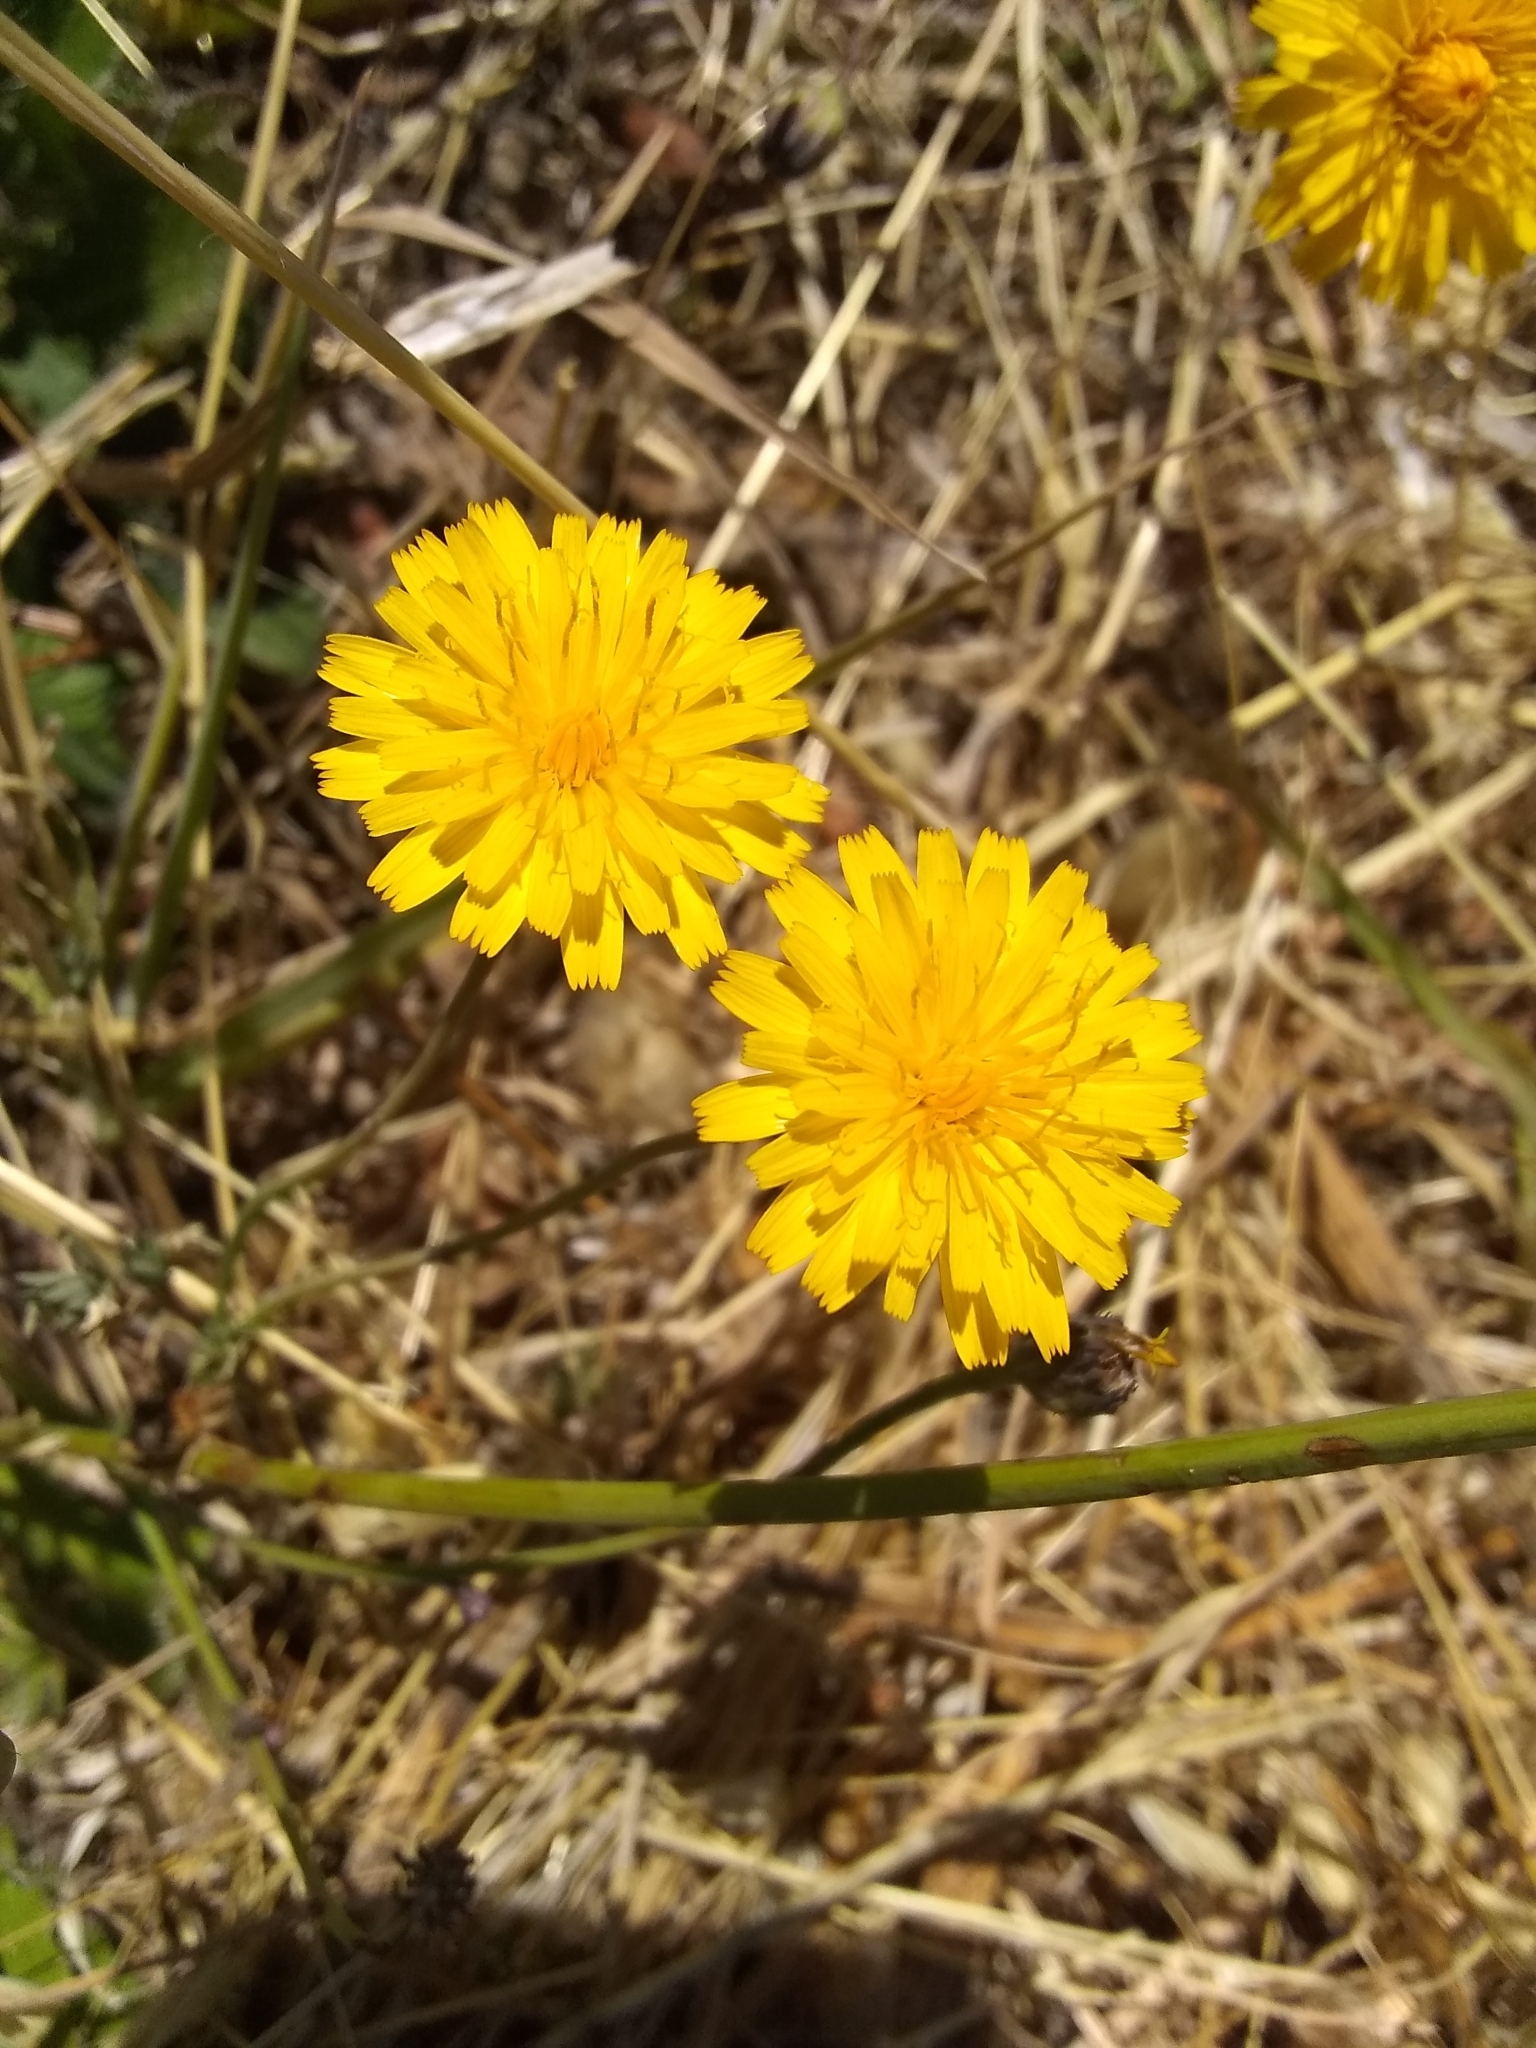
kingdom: Plantae
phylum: Tracheophyta
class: Magnoliopsida
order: Asterales
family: Asteraceae
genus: Hypochaeris
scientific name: Hypochaeris radicata
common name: Flatweed
